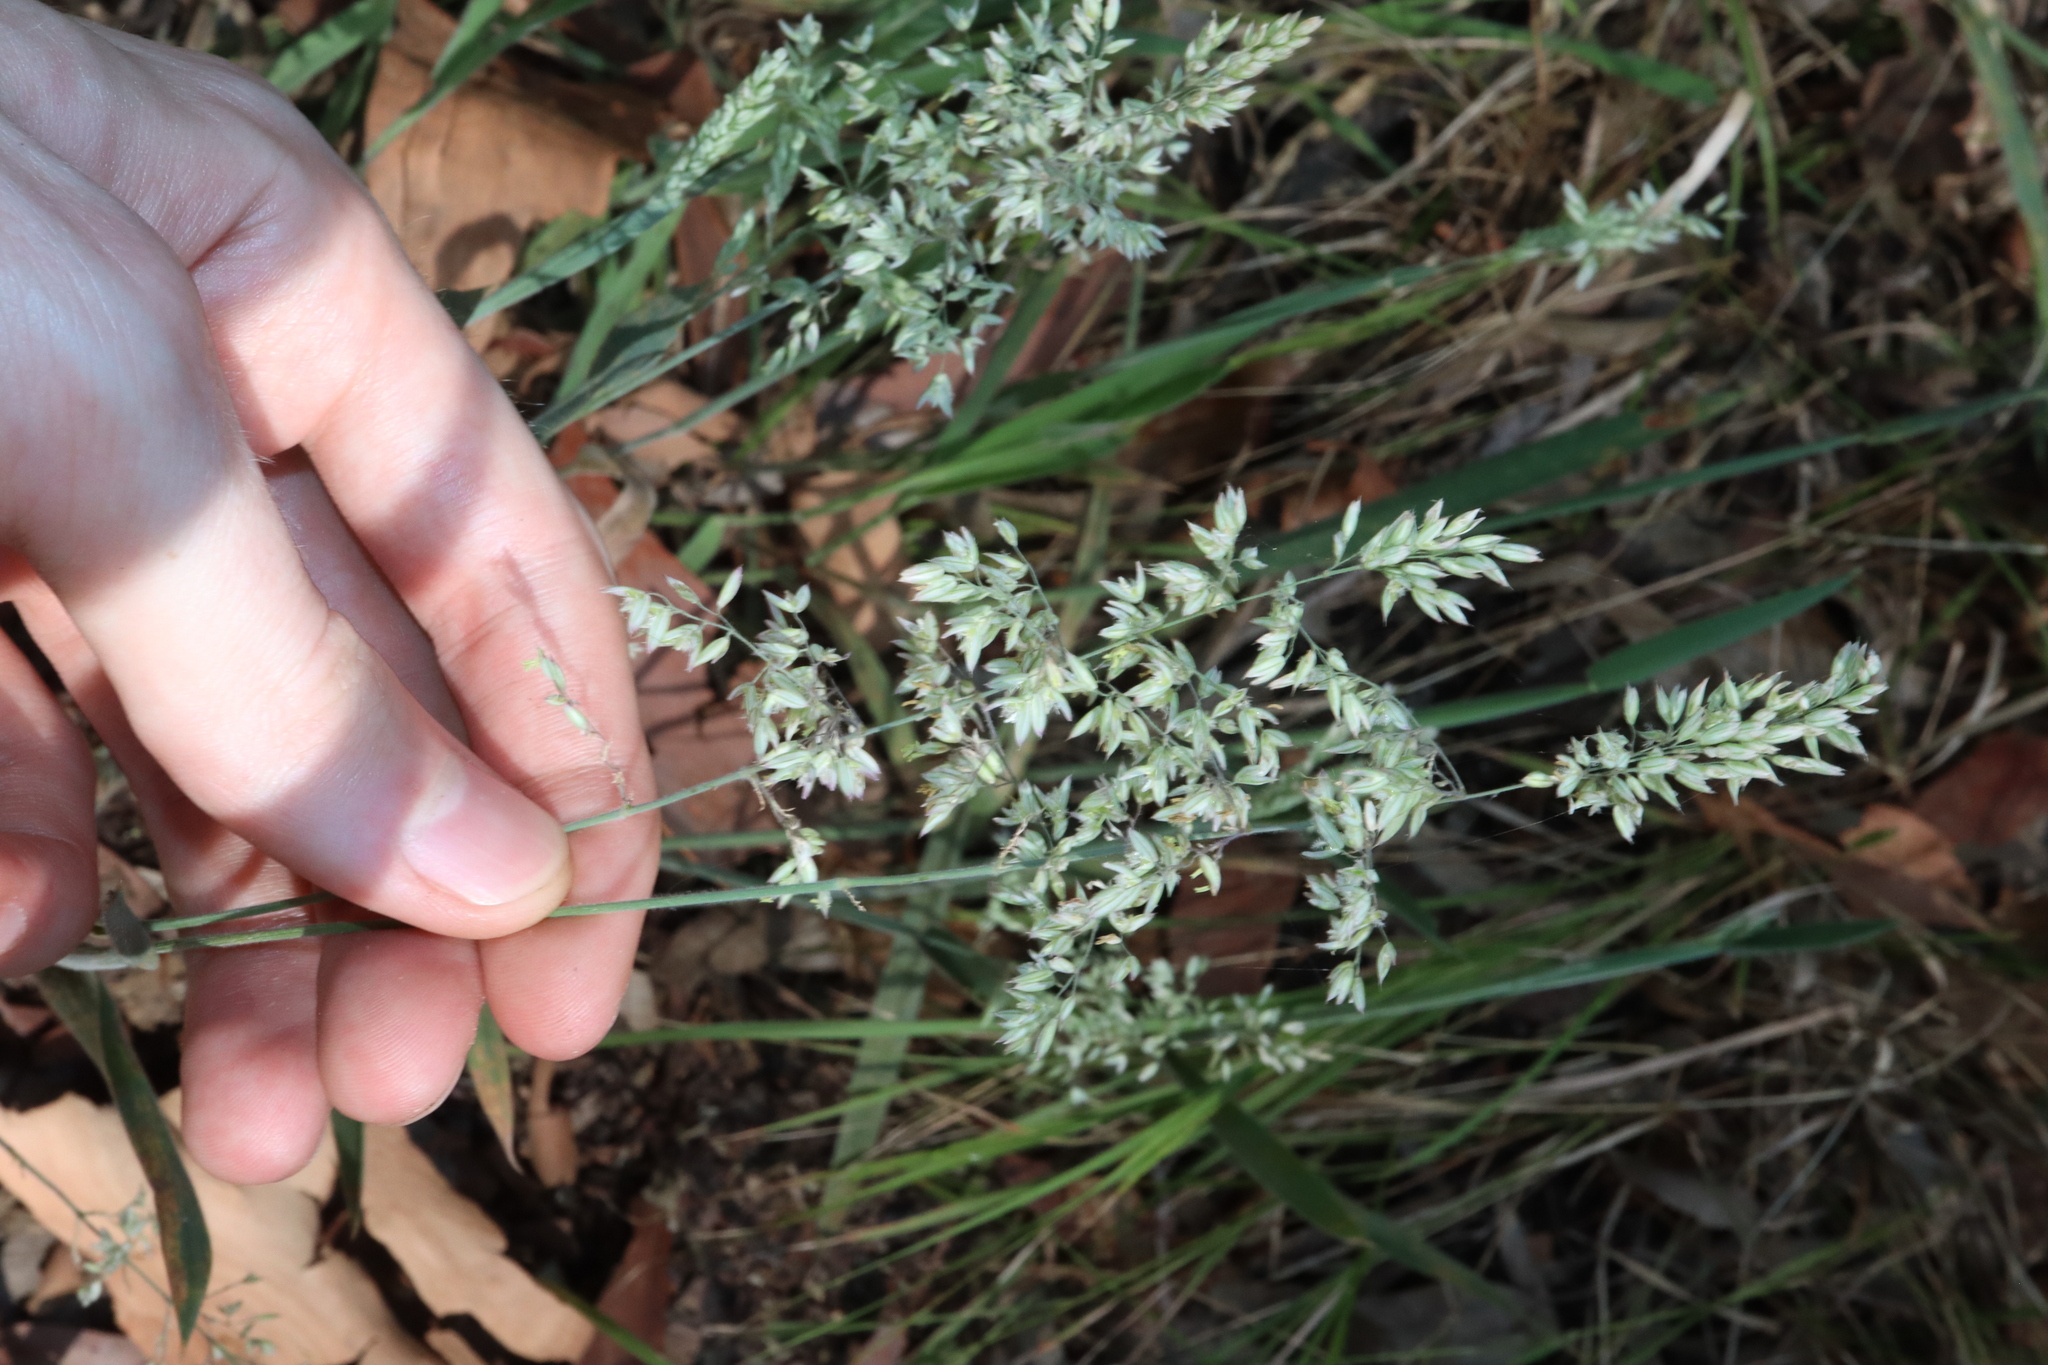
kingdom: Plantae
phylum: Tracheophyta
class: Liliopsida
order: Poales
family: Poaceae
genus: Holcus
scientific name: Holcus lanatus
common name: Yorkshire-fog
